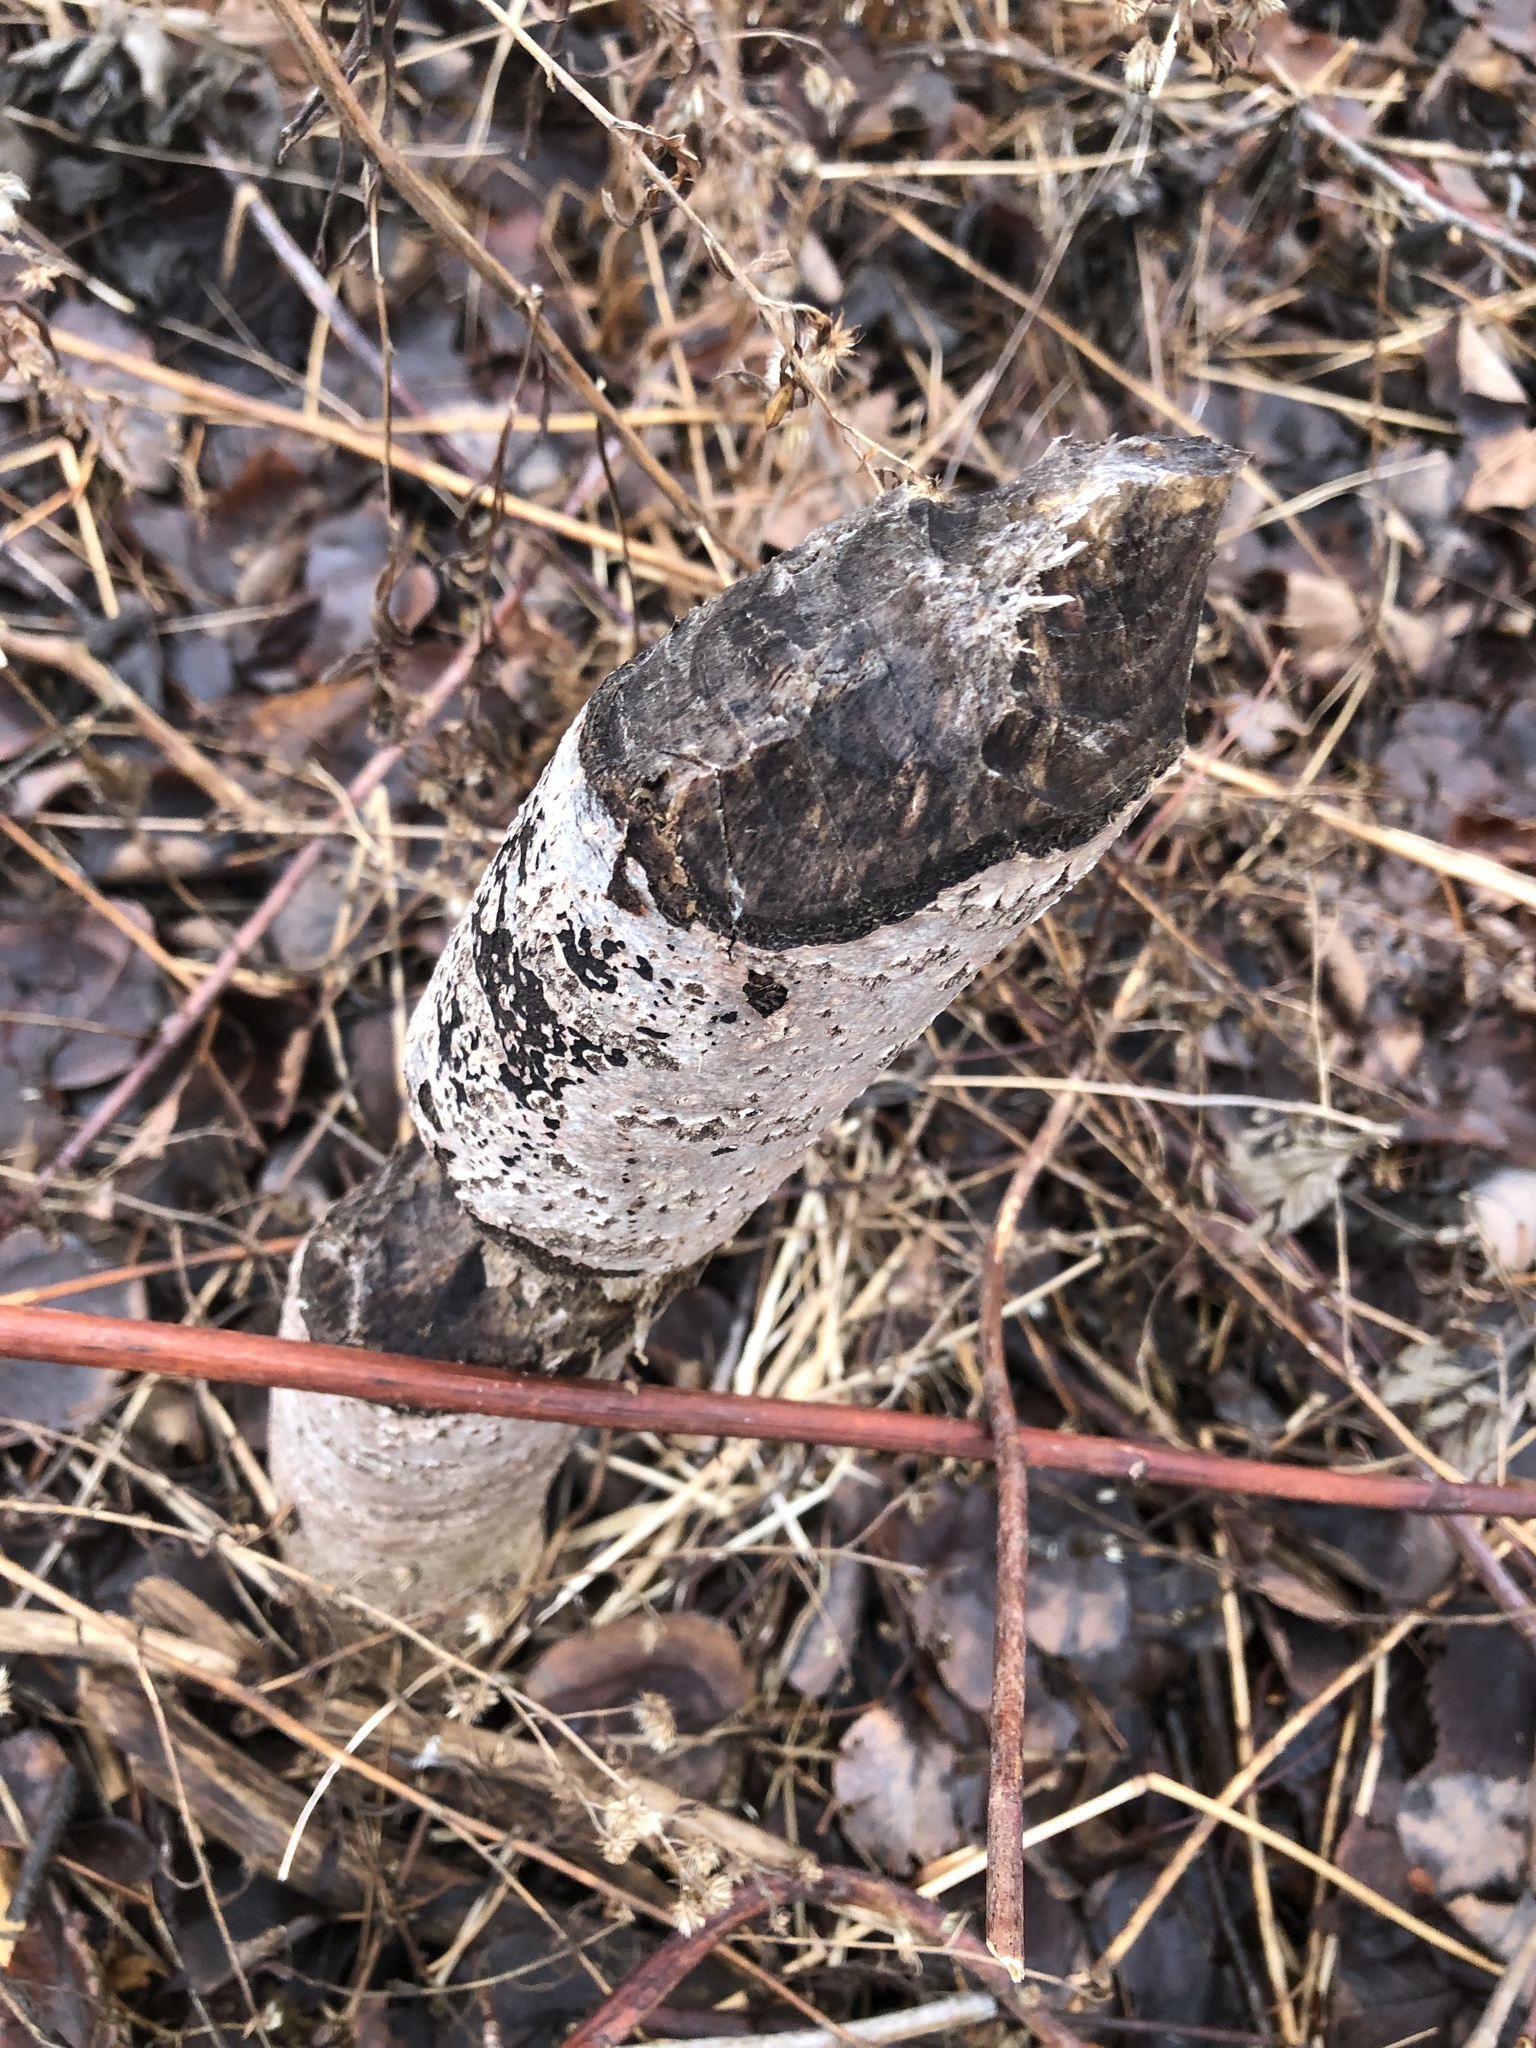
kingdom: Animalia
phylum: Chordata
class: Mammalia
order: Rodentia
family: Castoridae
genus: Castor
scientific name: Castor canadensis
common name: American beaver
